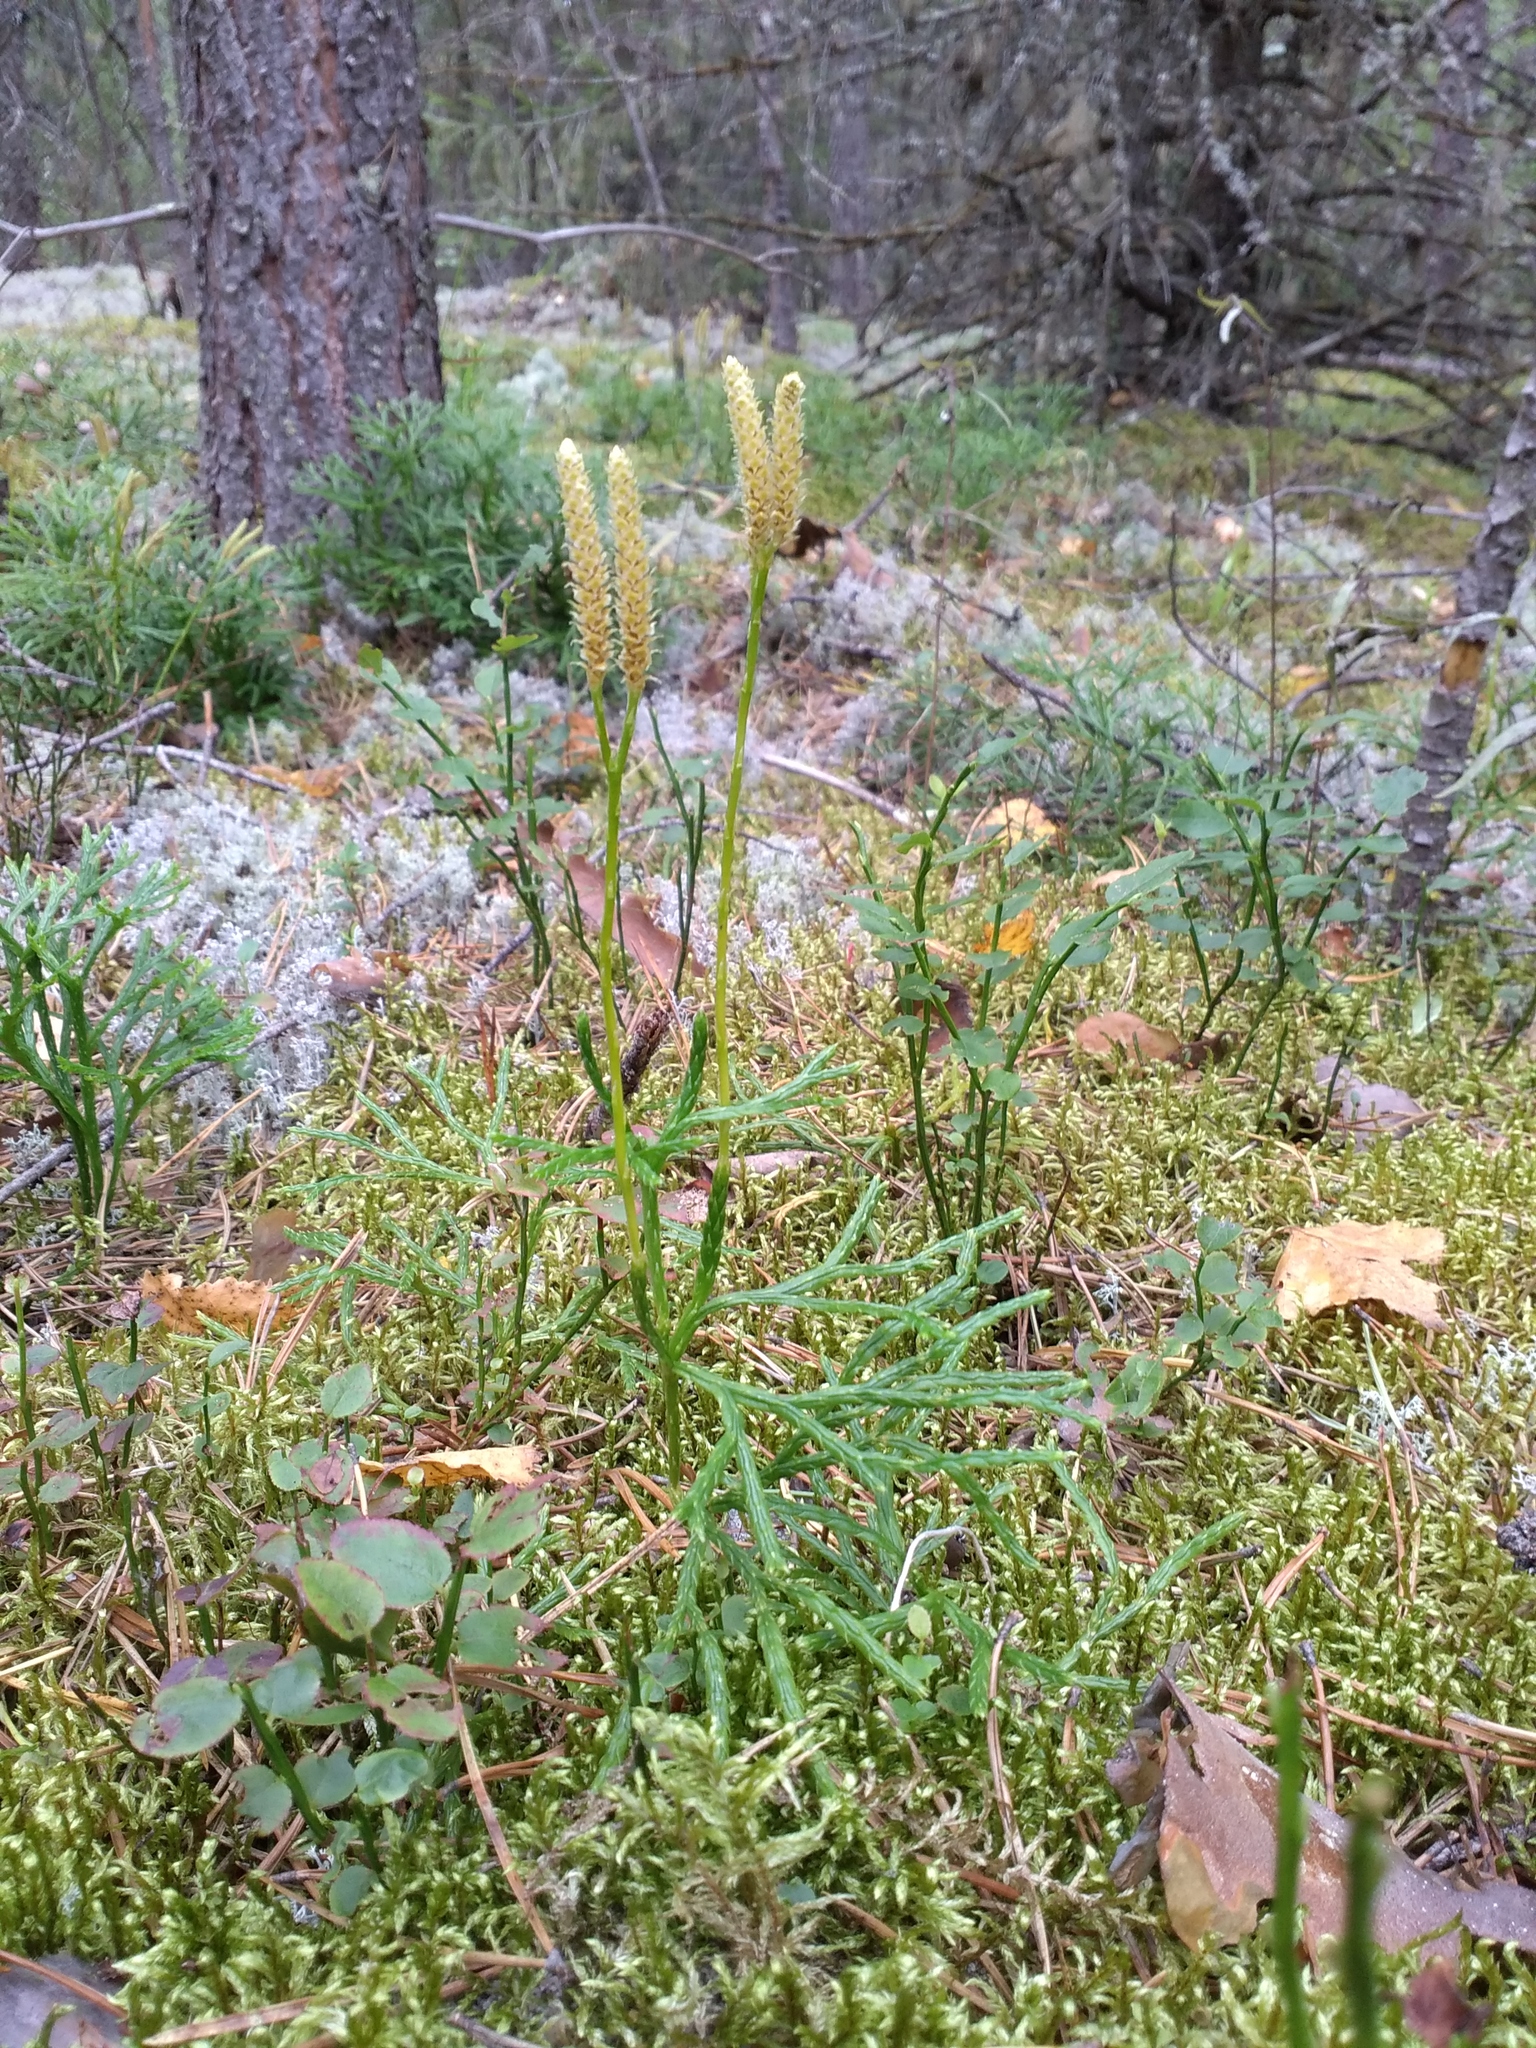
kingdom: Plantae
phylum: Tracheophyta
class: Lycopodiopsida
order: Lycopodiales
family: Lycopodiaceae
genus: Diphasiastrum
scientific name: Diphasiastrum complanatum
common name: Northern running-pine
